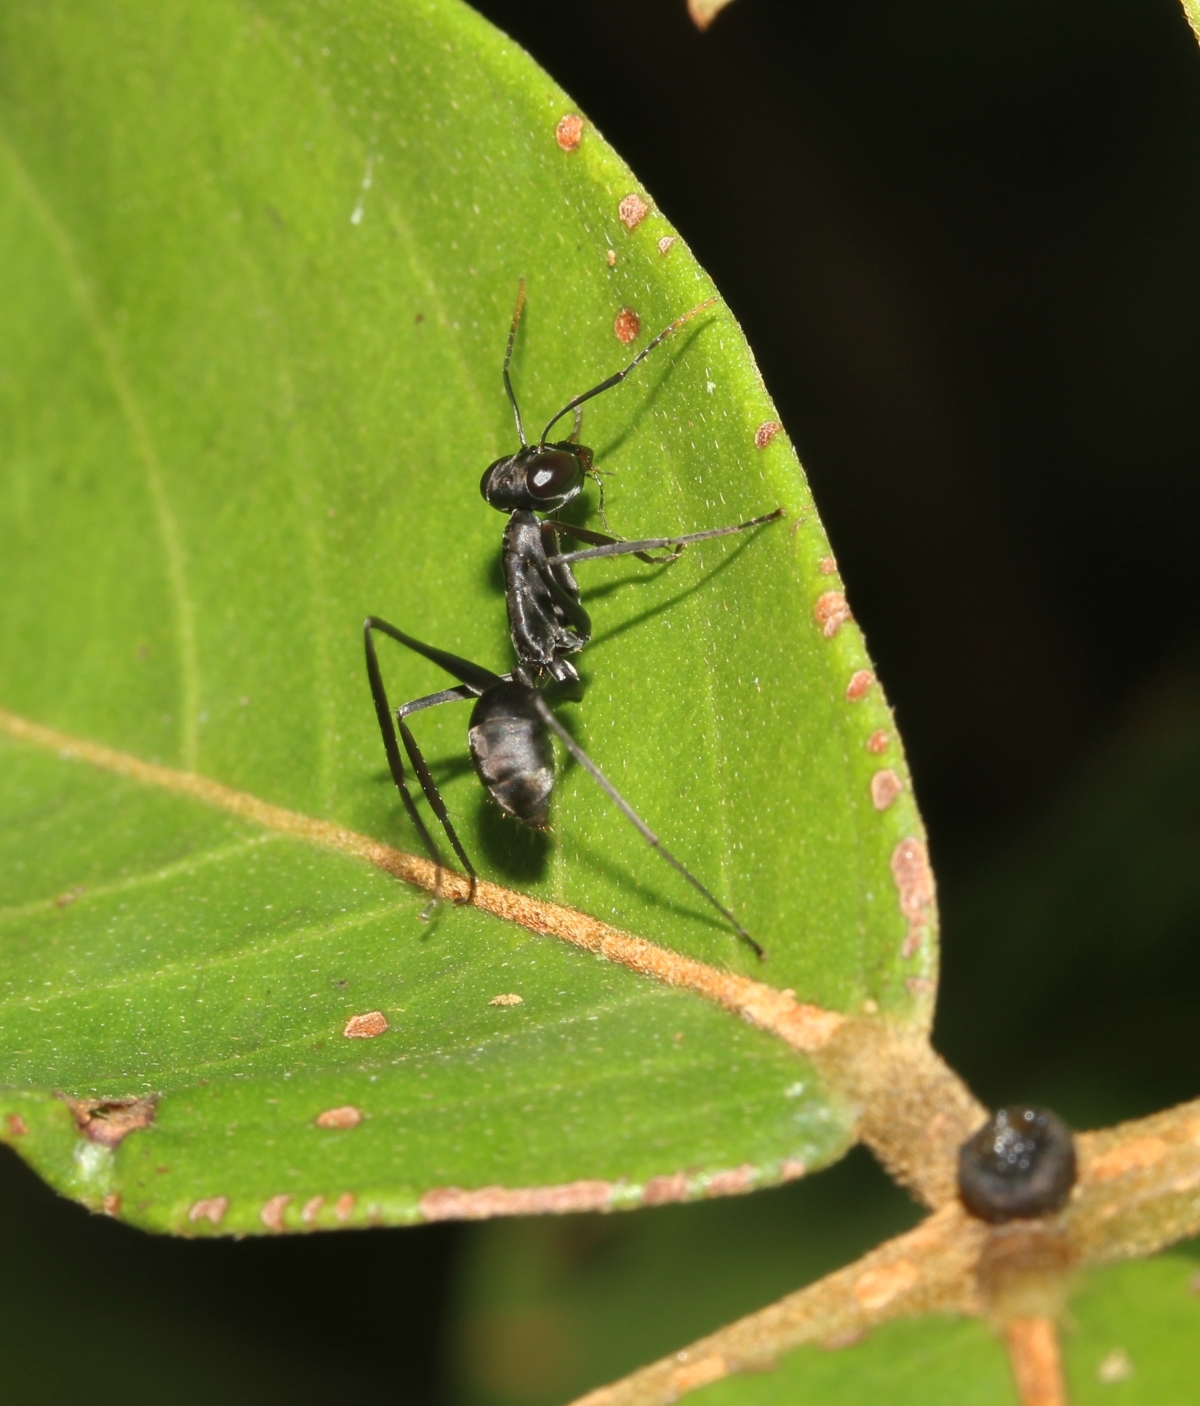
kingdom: Animalia
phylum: Arthropoda
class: Insecta
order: Hymenoptera
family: Formicidae
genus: Gigantiops
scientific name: Gigantiops destructor
